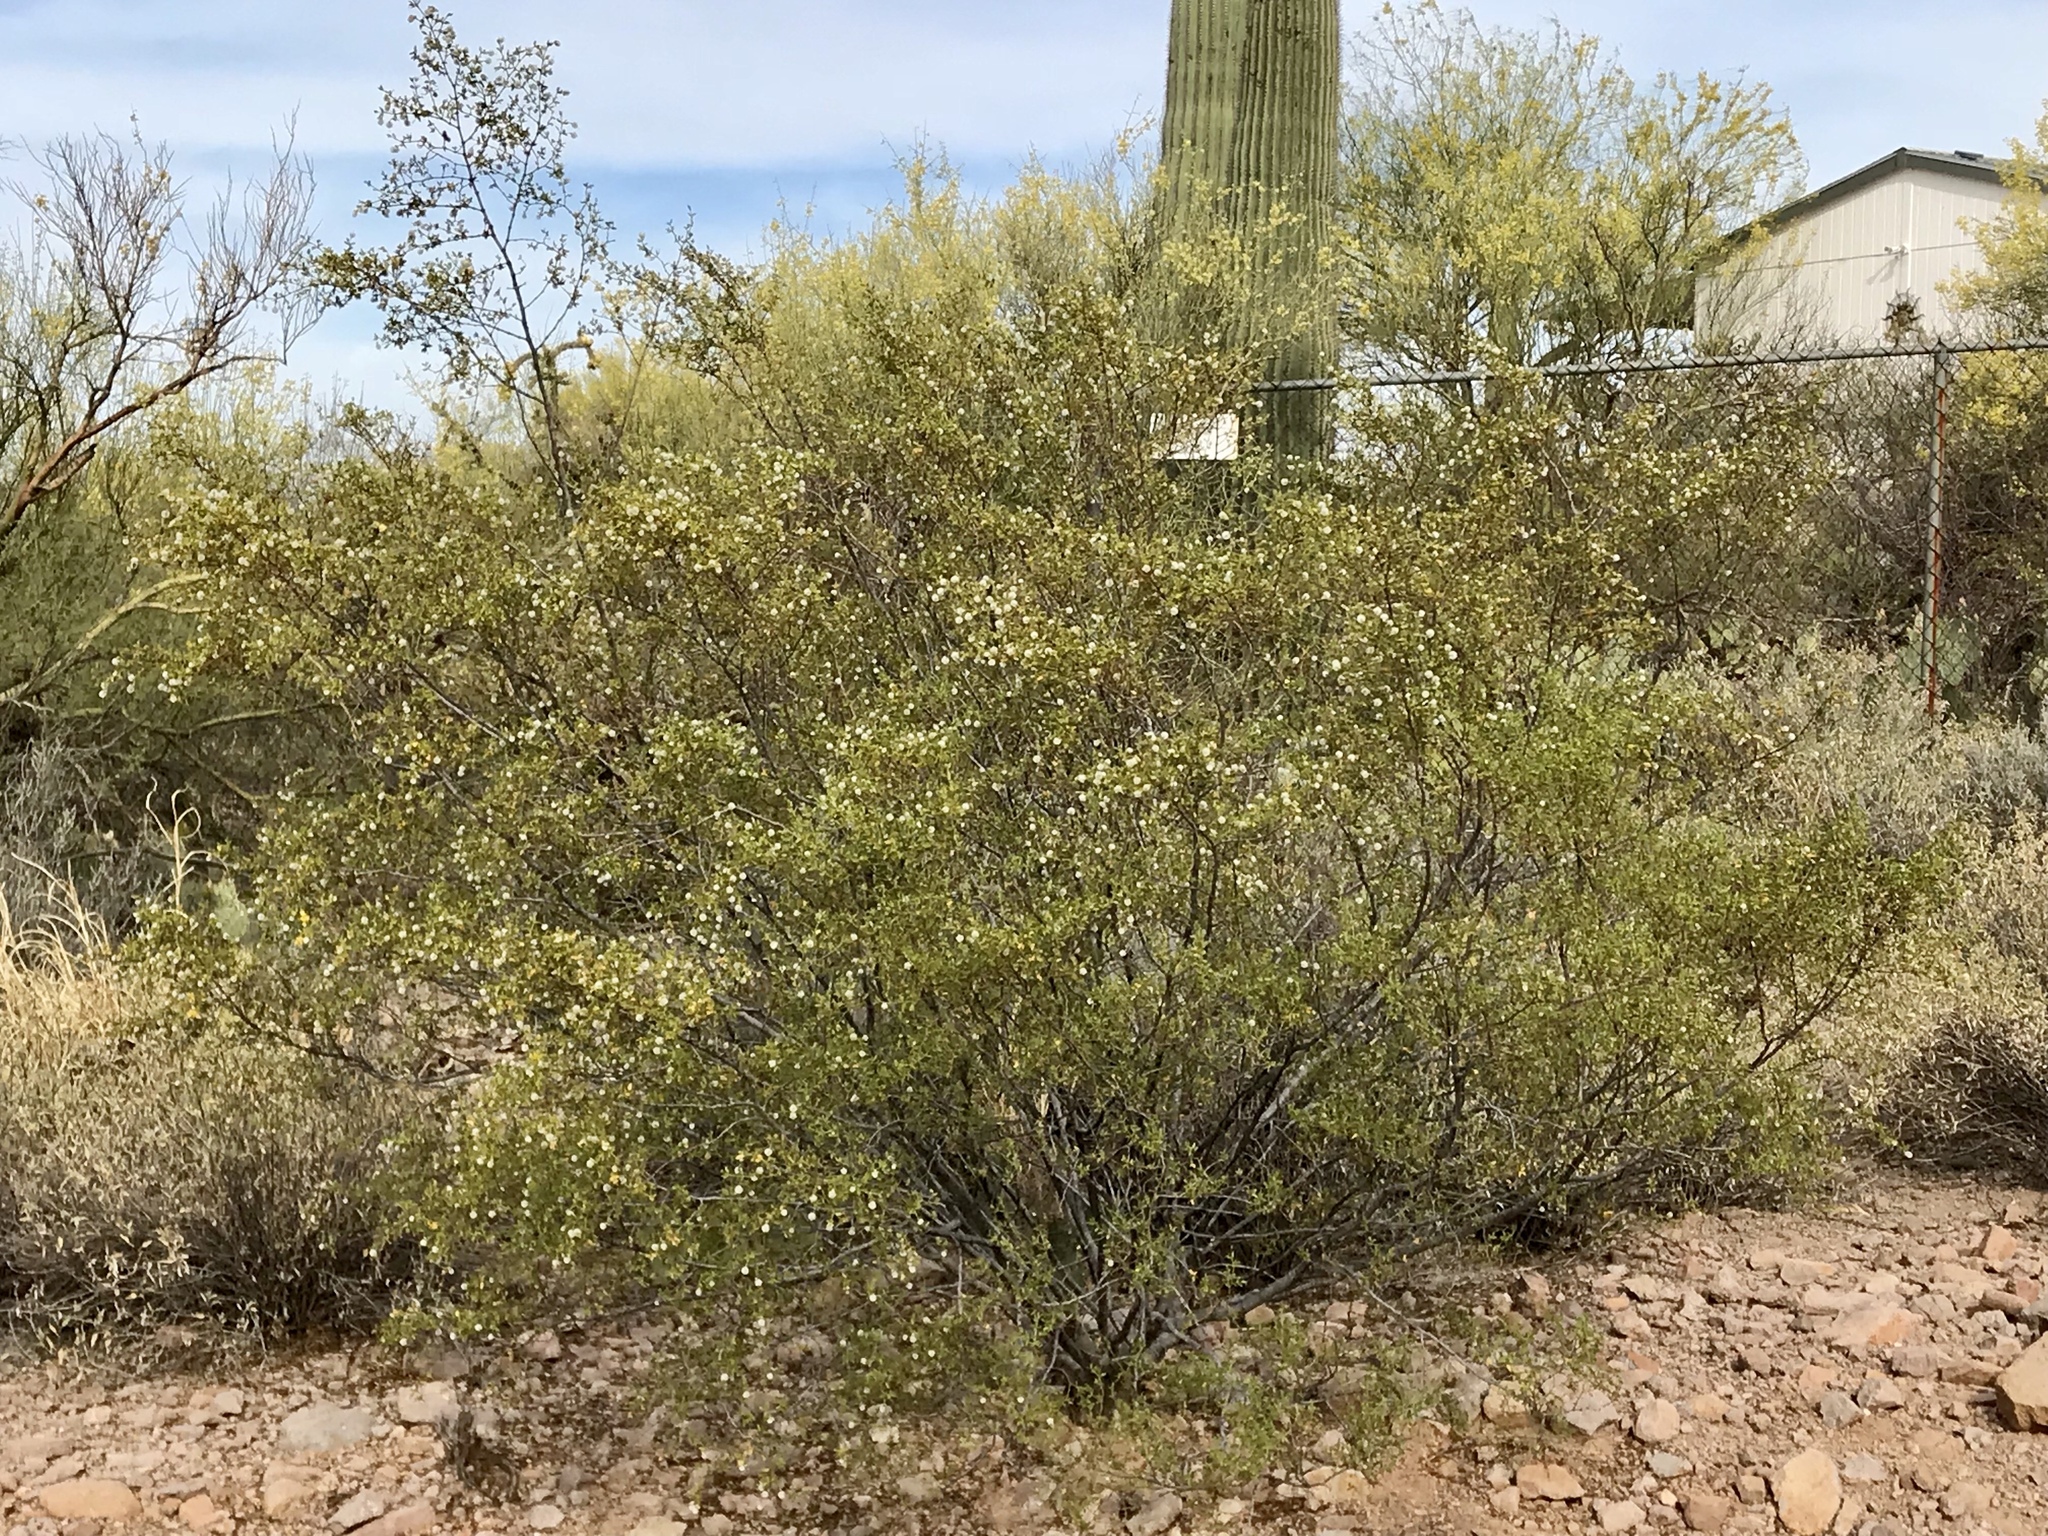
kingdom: Plantae
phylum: Tracheophyta
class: Magnoliopsida
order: Zygophyllales
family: Zygophyllaceae
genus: Larrea
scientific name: Larrea tridentata
